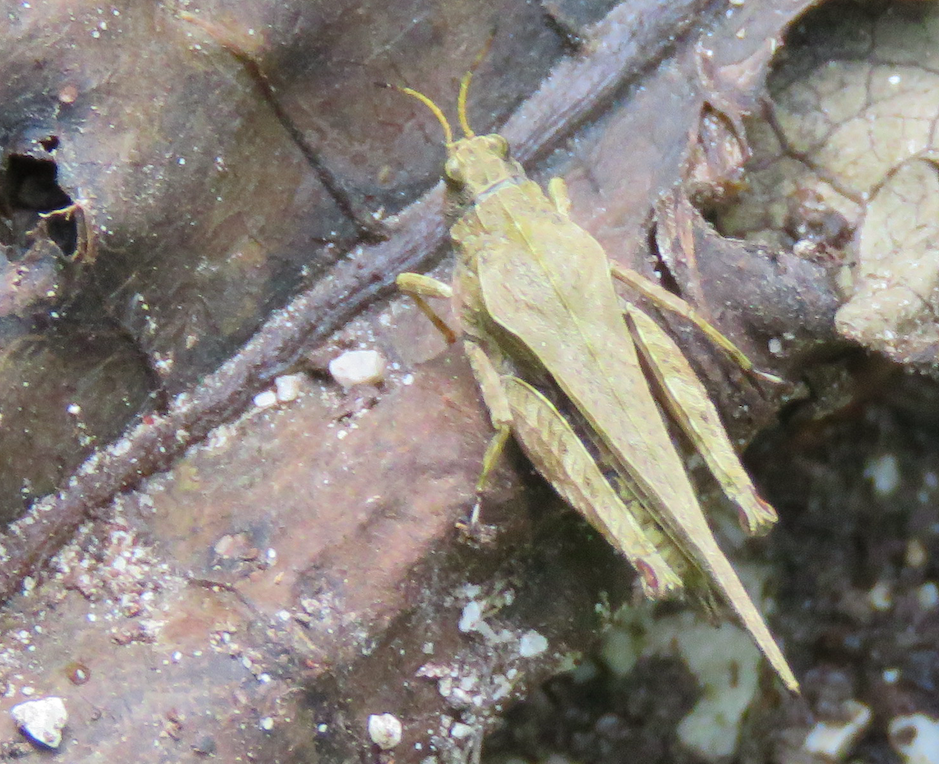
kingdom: Animalia
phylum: Arthropoda
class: Insecta
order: Orthoptera
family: Tetrigidae
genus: Tetrix
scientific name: Tetrix subulata
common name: Slender ground-hopper
